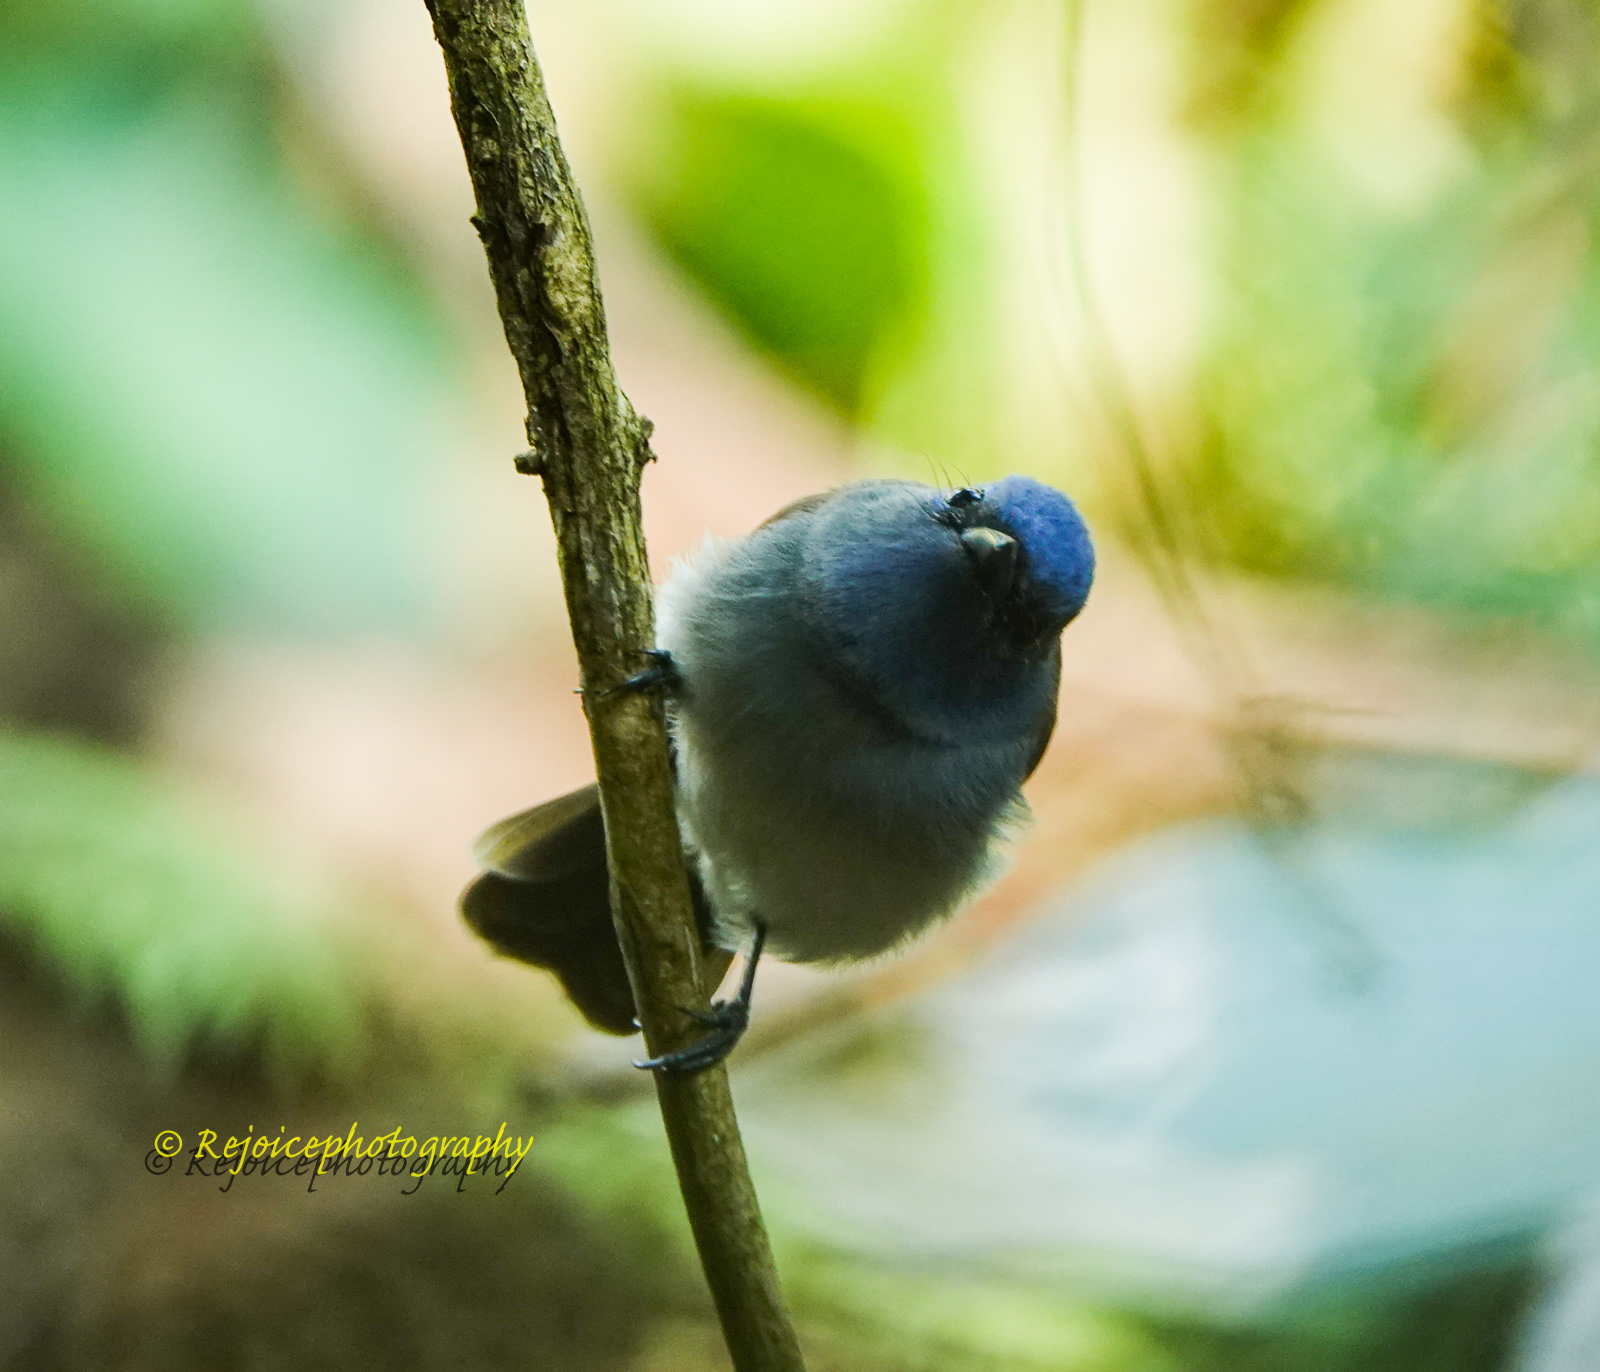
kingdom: Animalia
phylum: Chordata
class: Aves
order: Passeriformes
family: Monarchidae
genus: Hypothymis
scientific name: Hypothymis azurea
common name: Black-naped monarch
